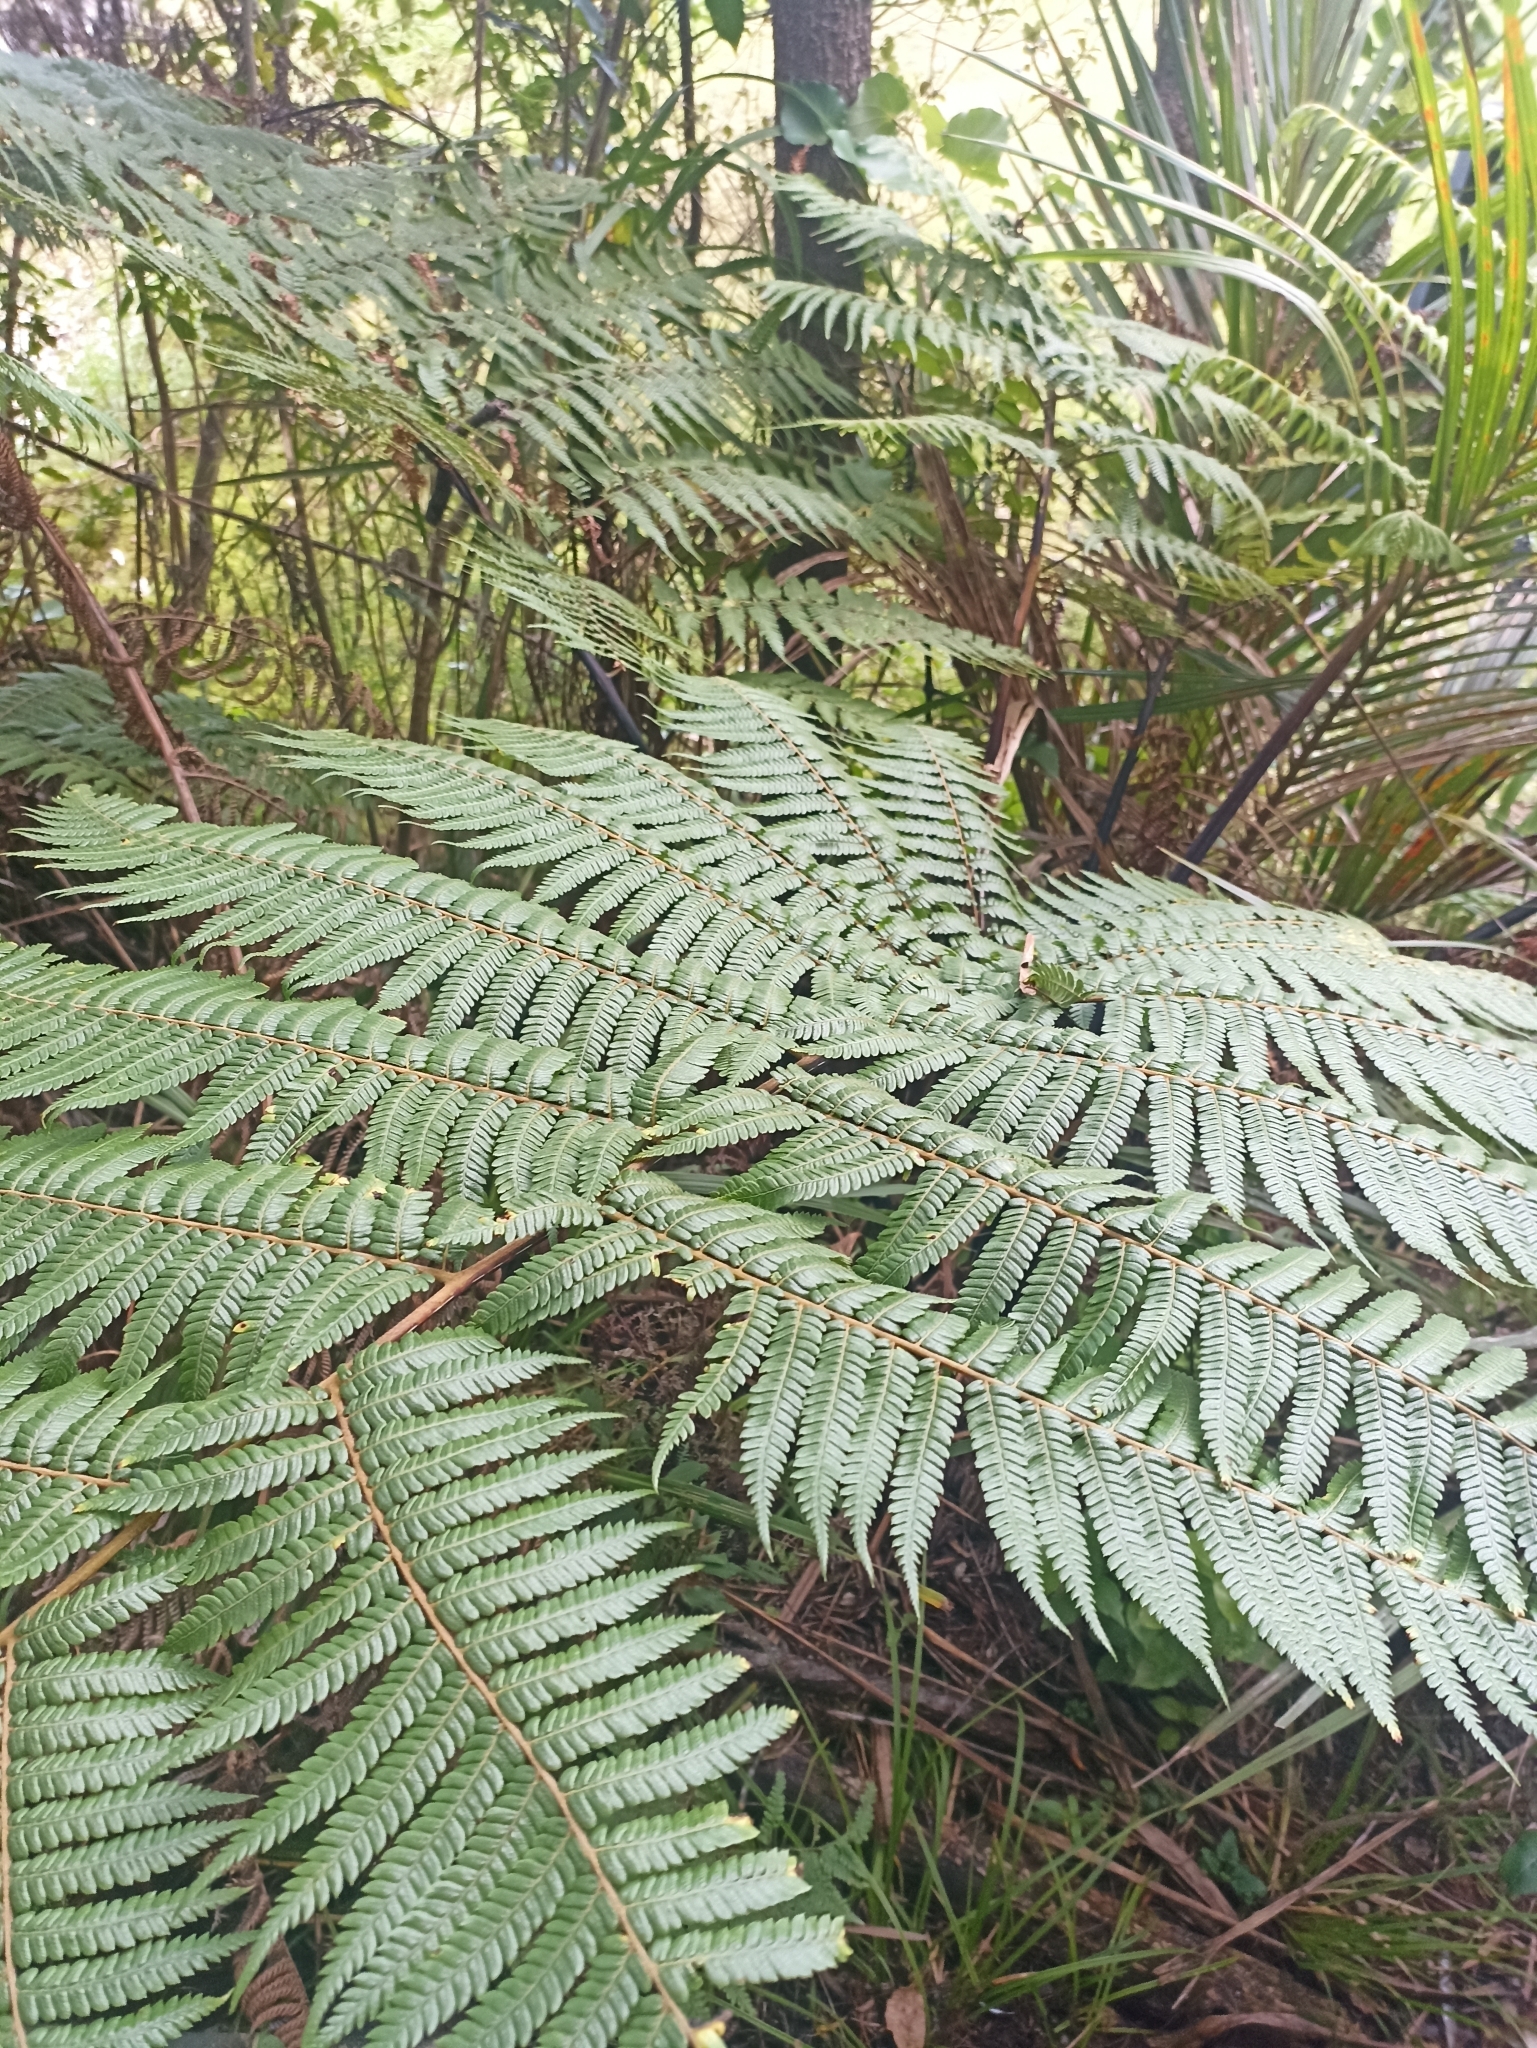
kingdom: Plantae
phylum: Tracheophyta
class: Polypodiopsida
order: Cyatheales
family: Cyatheaceae
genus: Sphaeropteris
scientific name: Sphaeropteris medullaris
